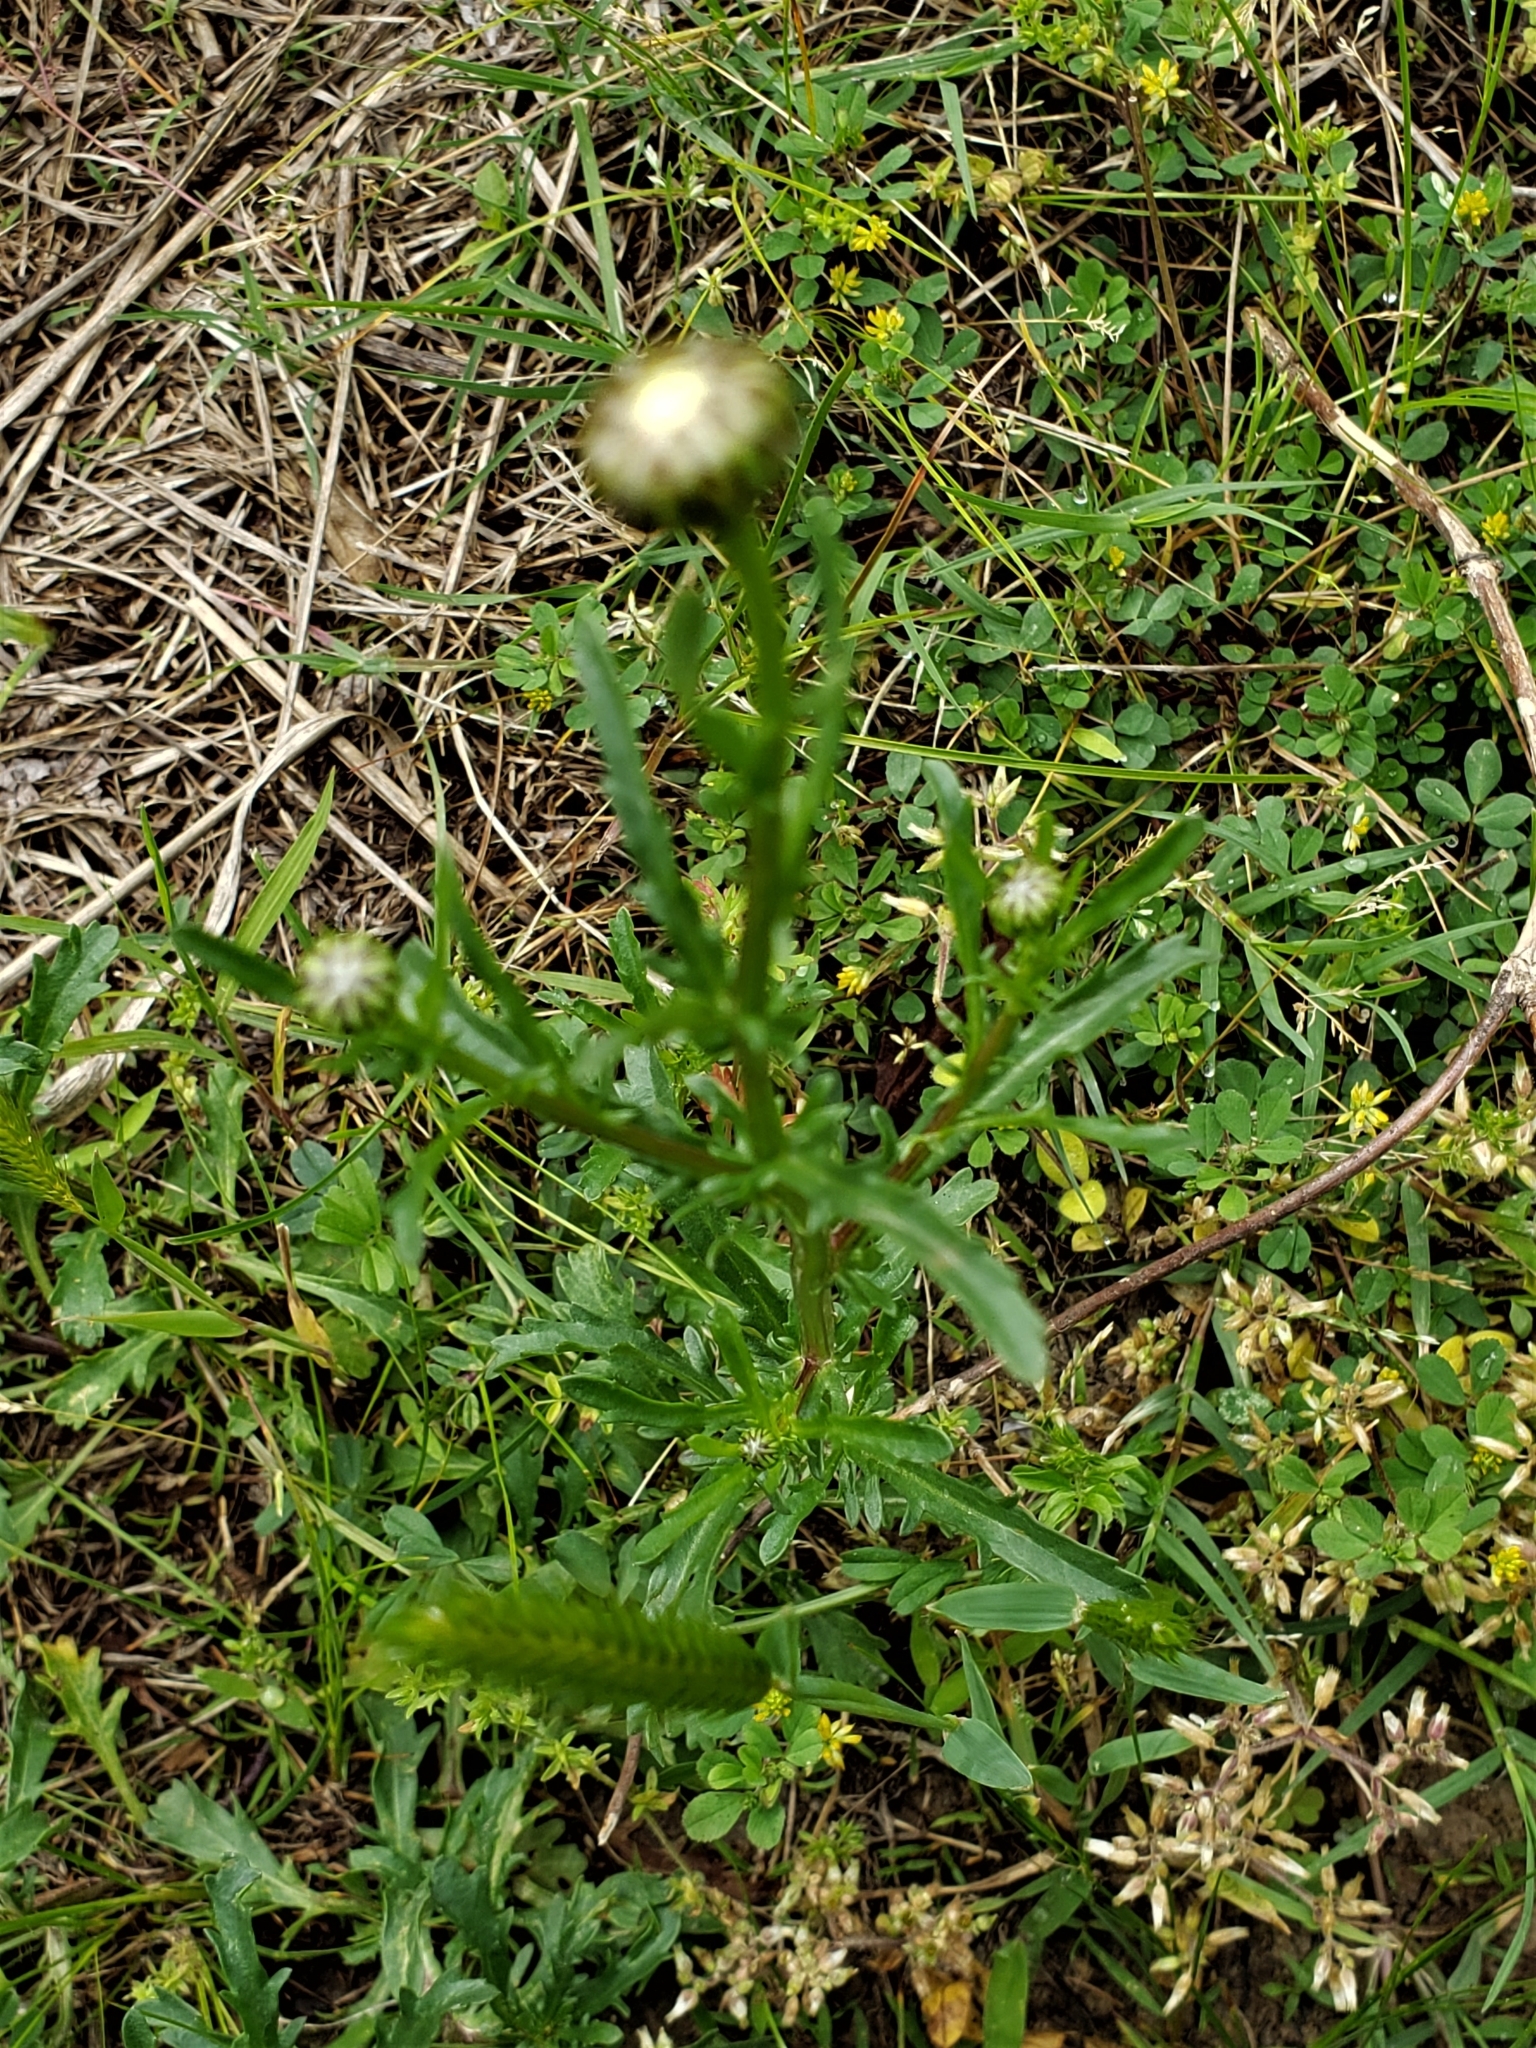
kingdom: Plantae
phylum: Tracheophyta
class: Magnoliopsida
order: Asterales
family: Asteraceae
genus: Leucanthemum
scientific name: Leucanthemum vulgare
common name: Oxeye daisy
